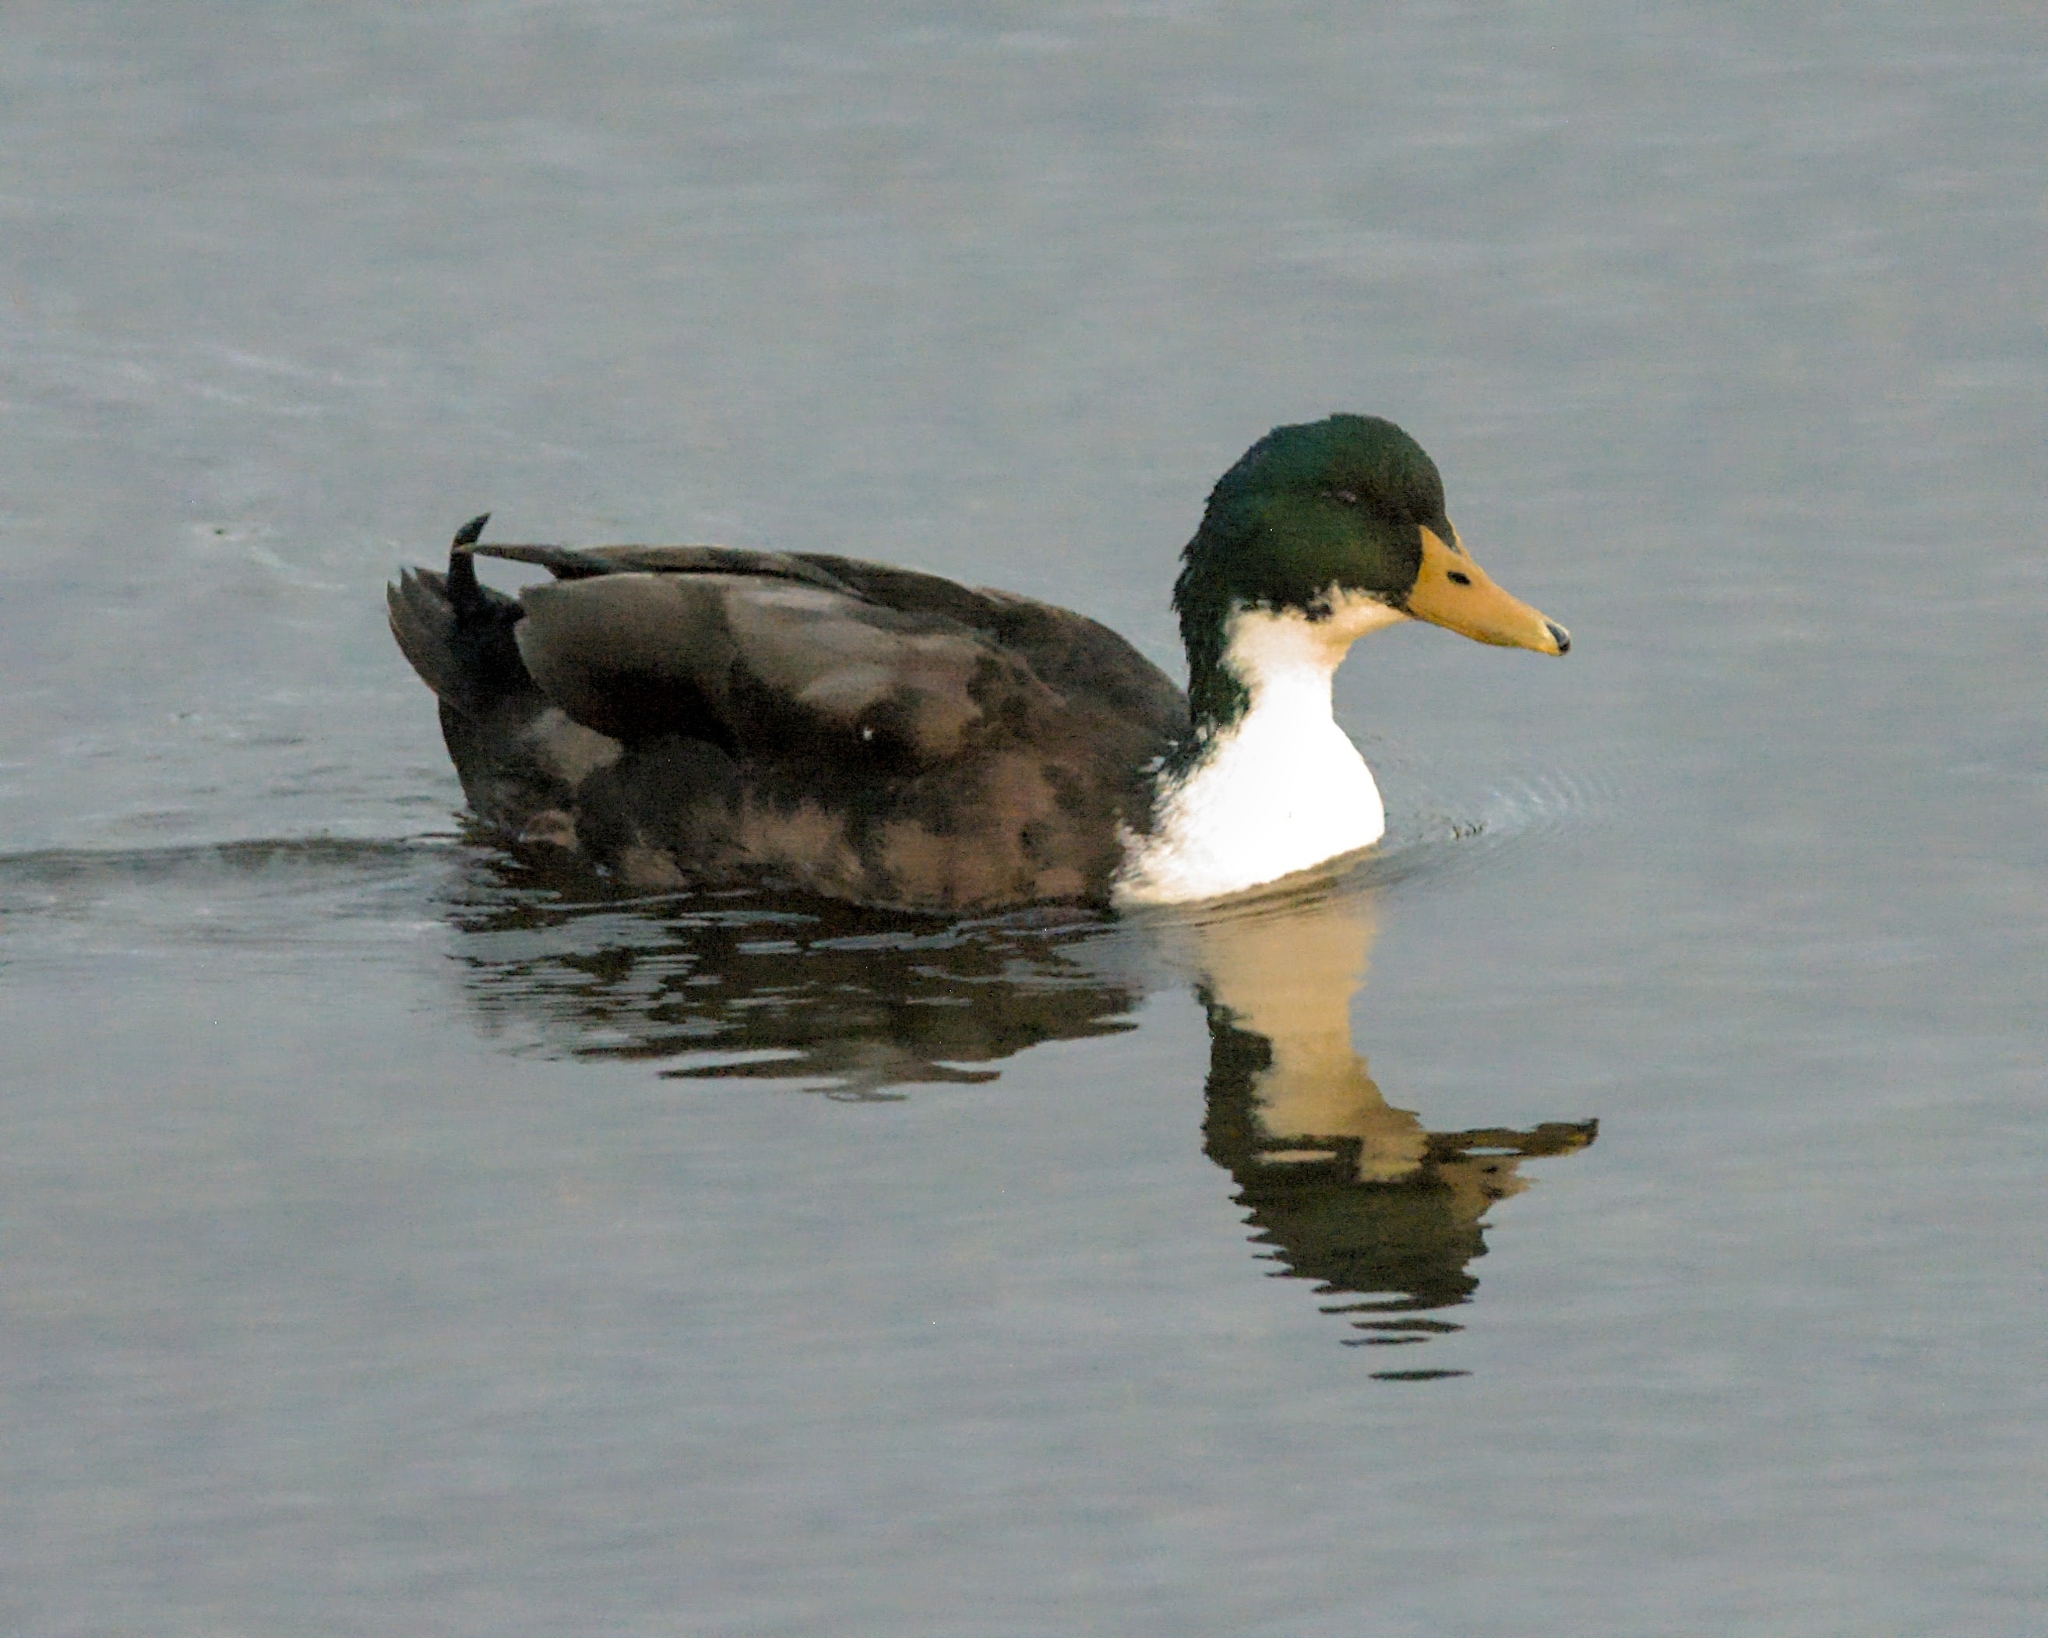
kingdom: Animalia
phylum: Chordata
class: Aves
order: Anseriformes
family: Anatidae
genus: Anas
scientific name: Anas platyrhynchos
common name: Mallard
